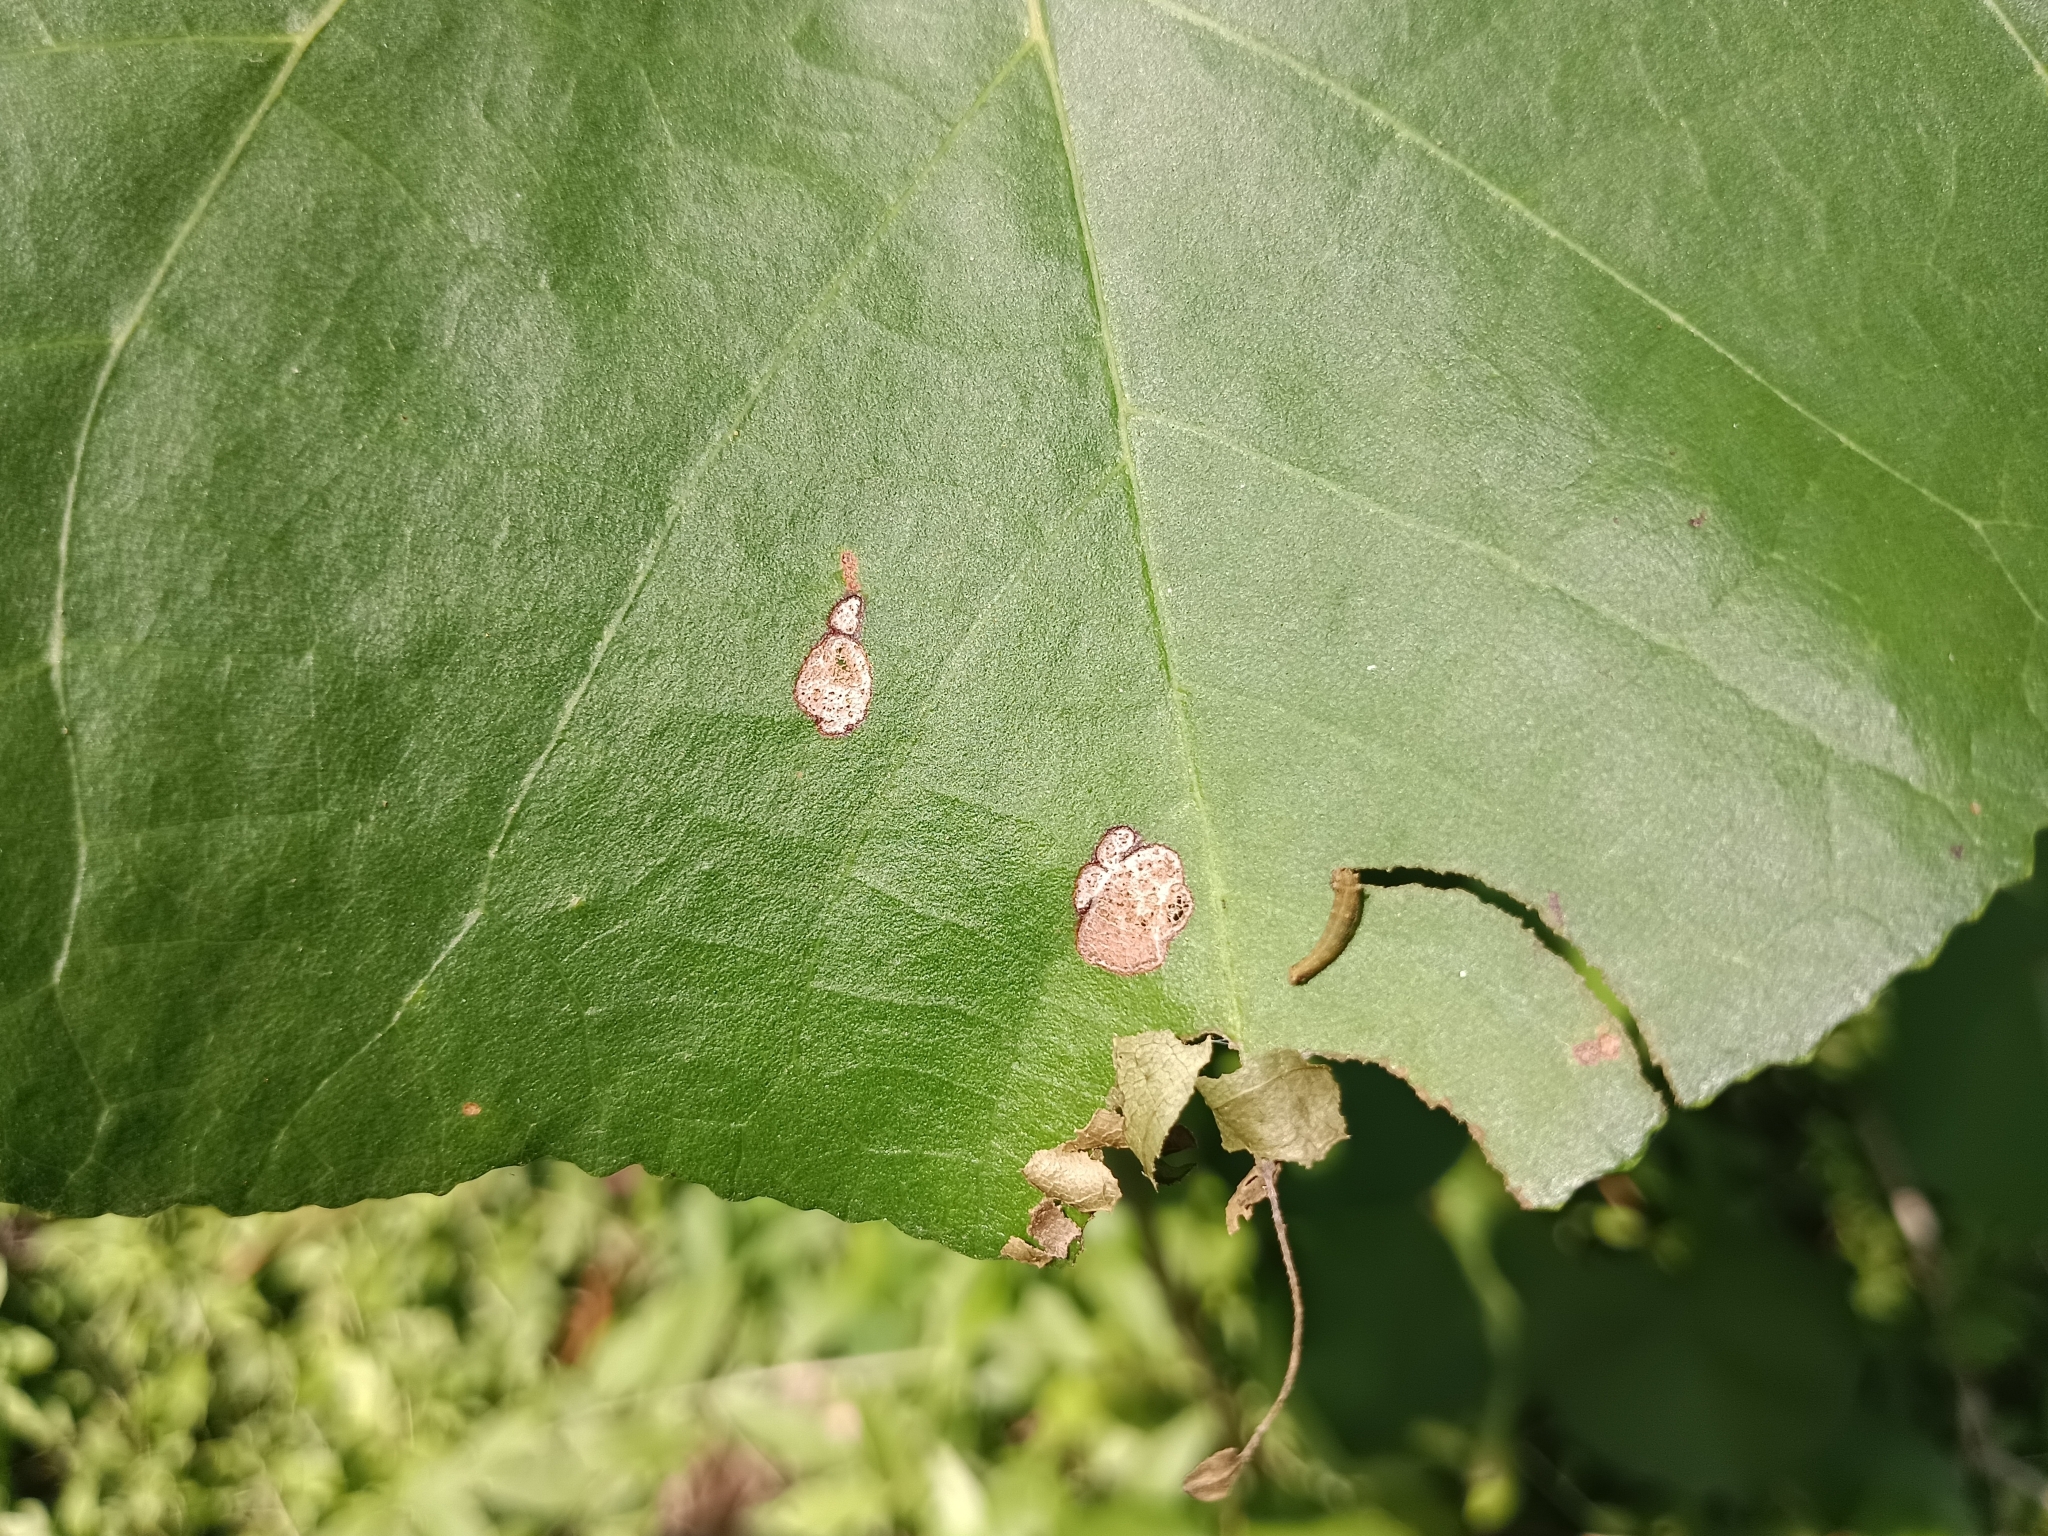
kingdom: Animalia
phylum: Arthropoda
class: Insecta
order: Lepidoptera
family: Nymphalidae
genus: Neptis
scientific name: Neptis jumbah
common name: Chestnut-streaked sailer
